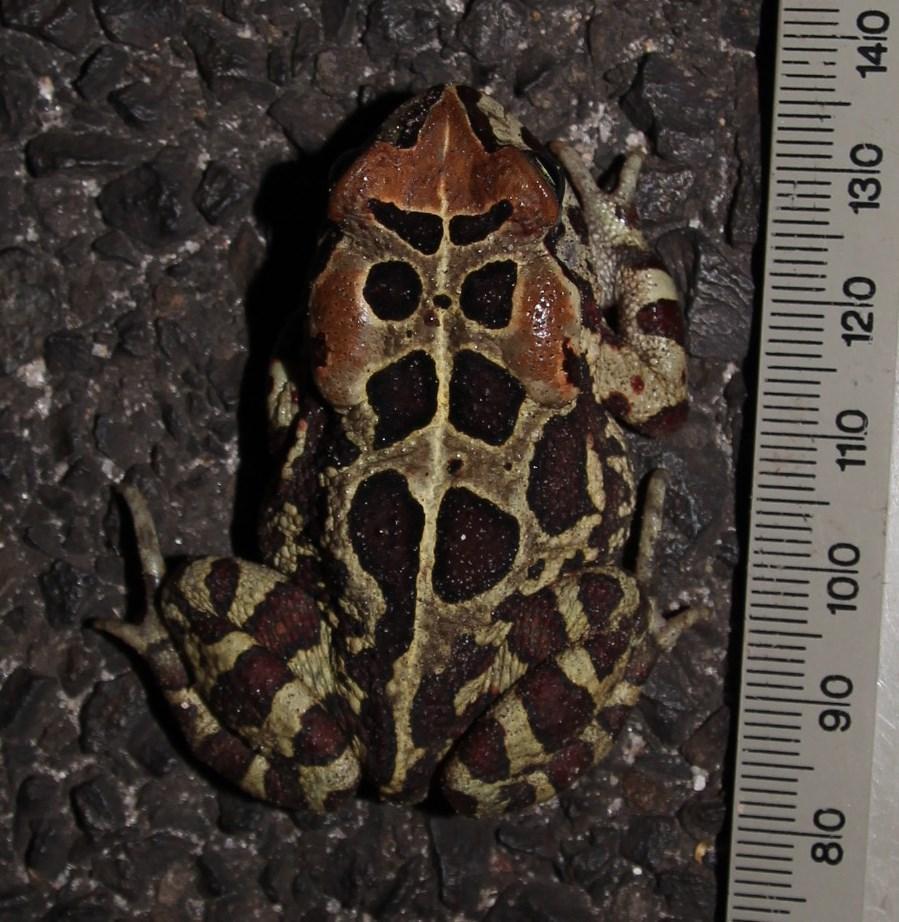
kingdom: Animalia
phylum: Chordata
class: Amphibia
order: Anura
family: Bufonidae
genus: Sclerophrys
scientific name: Sclerophrys pantherina
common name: Panther toad
